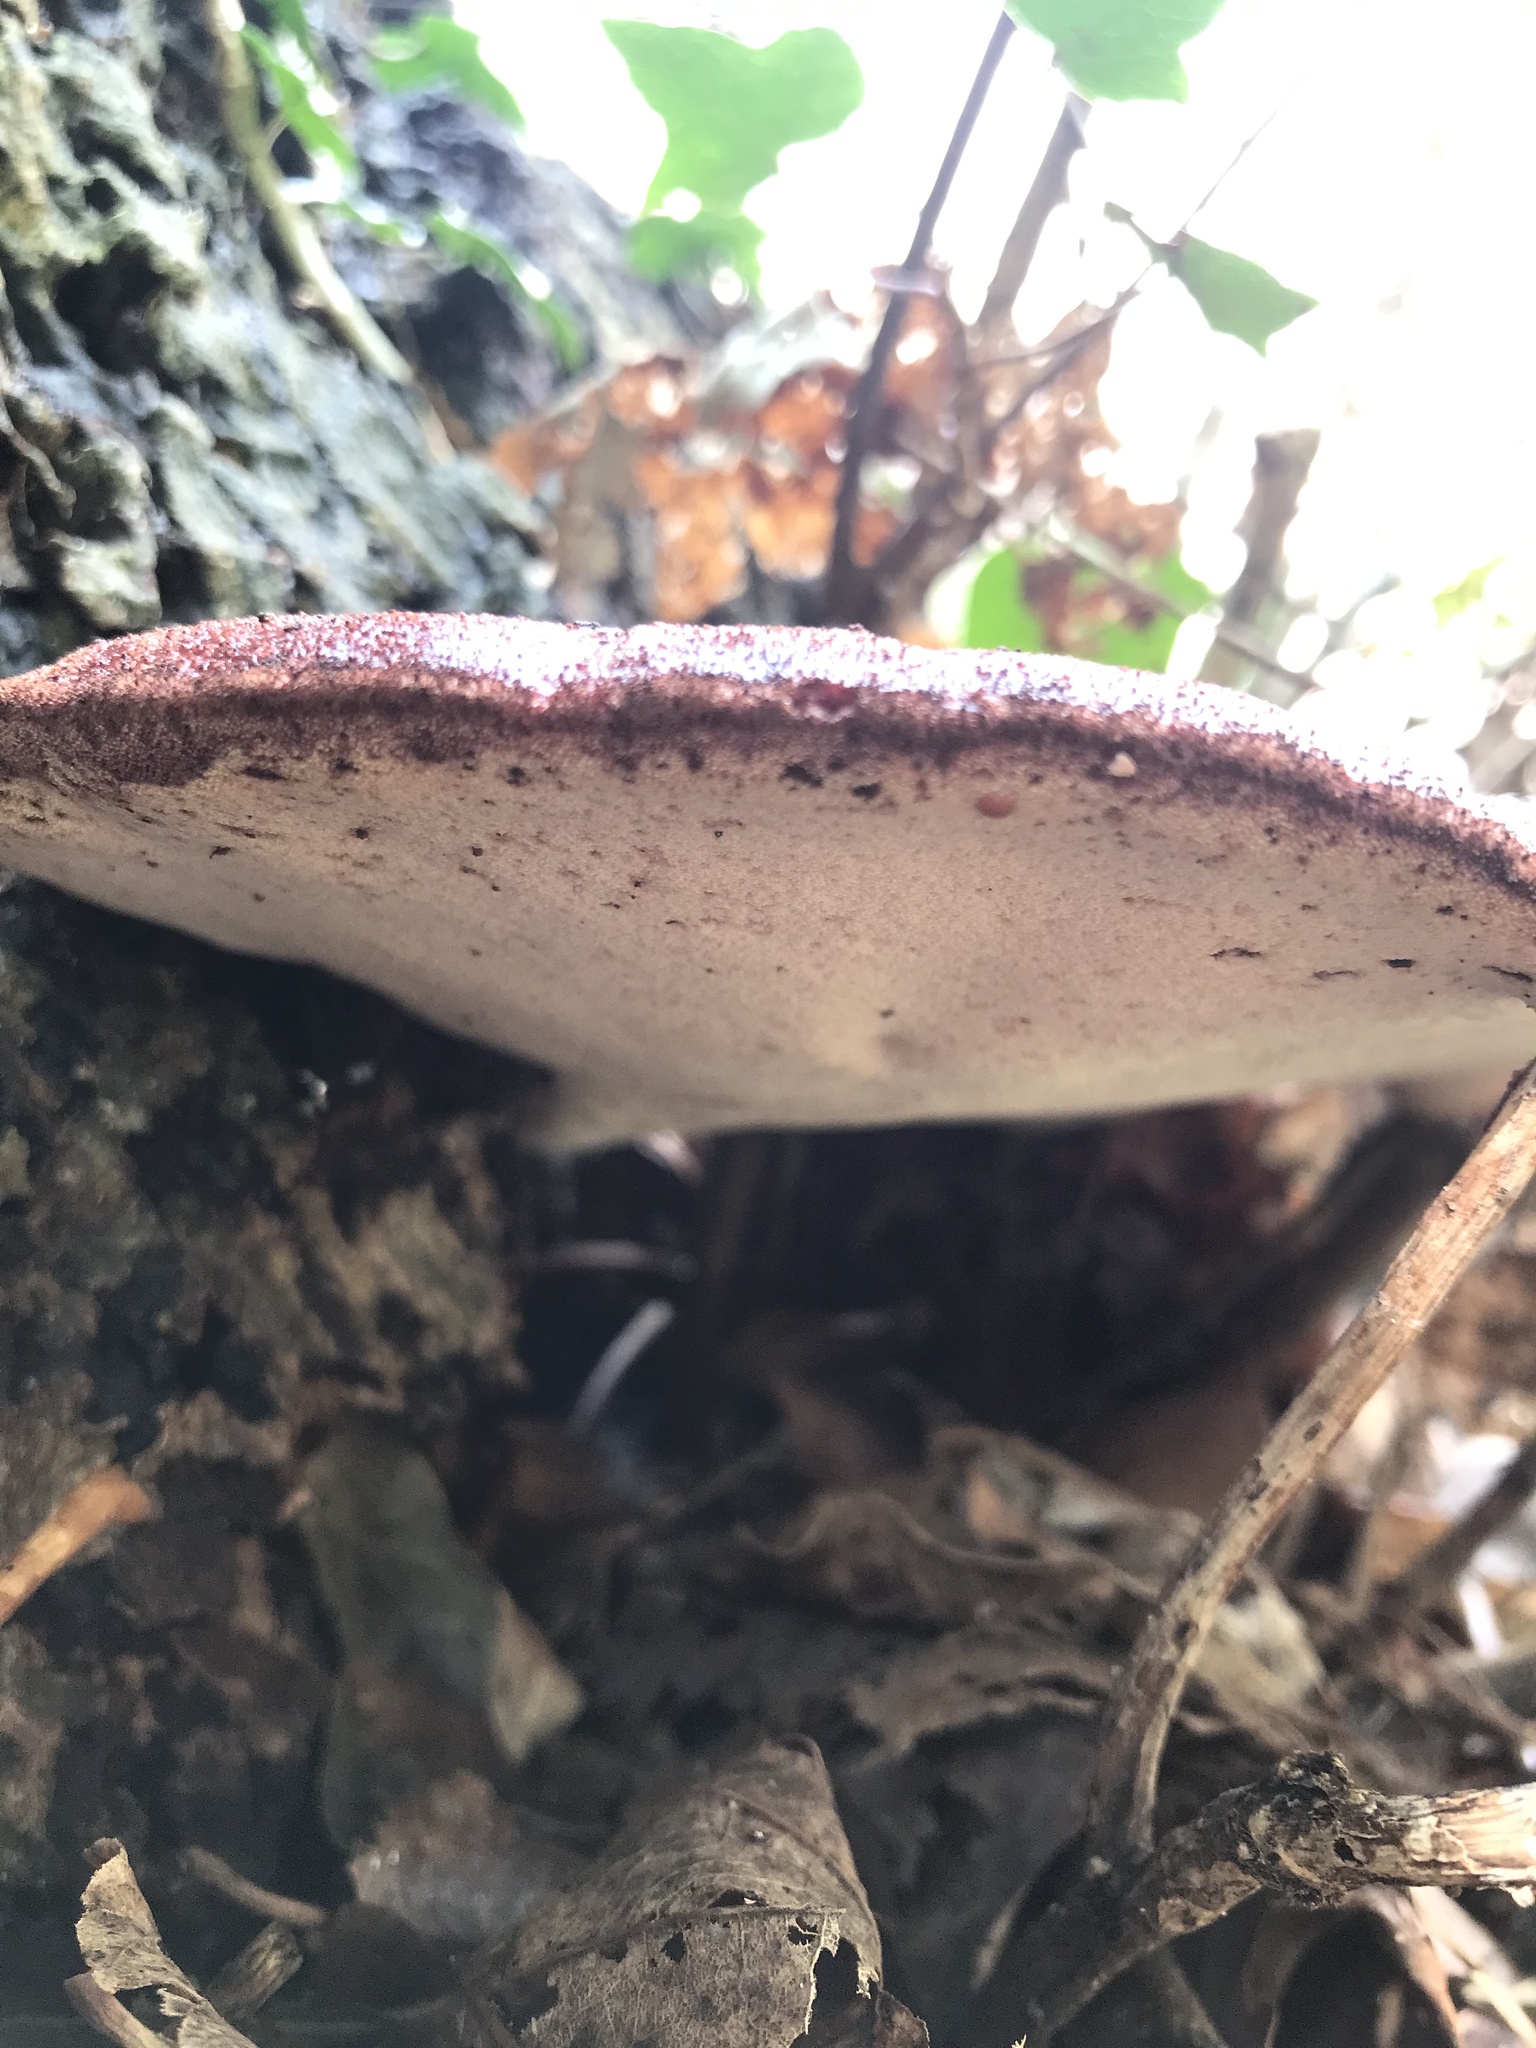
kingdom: Fungi
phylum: Basidiomycota
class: Agaricomycetes
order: Agaricales
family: Fistulinaceae
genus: Fistulina
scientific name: Fistulina hepatica
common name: Beef-steak fungus
